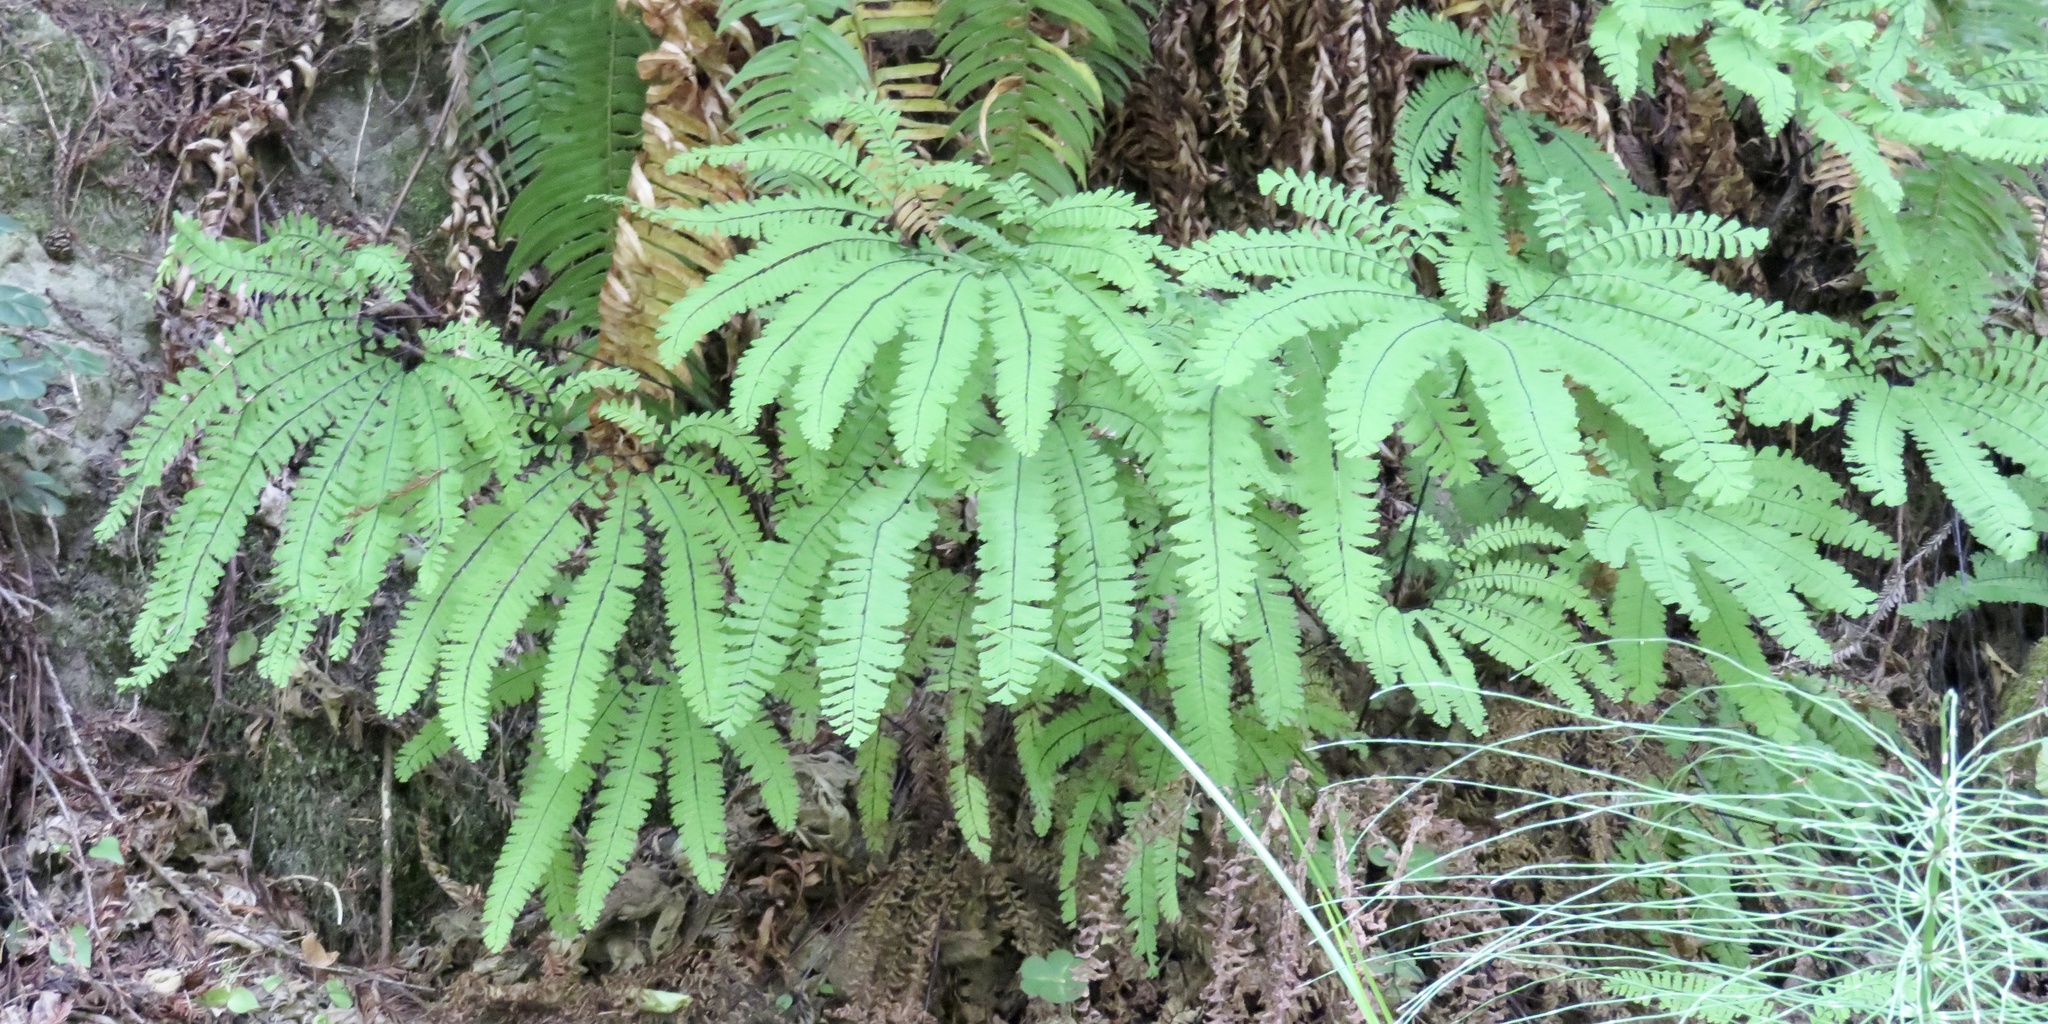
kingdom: Plantae
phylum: Tracheophyta
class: Polypodiopsida
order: Polypodiales
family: Pteridaceae
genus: Adiantum
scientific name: Adiantum aleuticum
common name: Aleutian maidenhair fern
